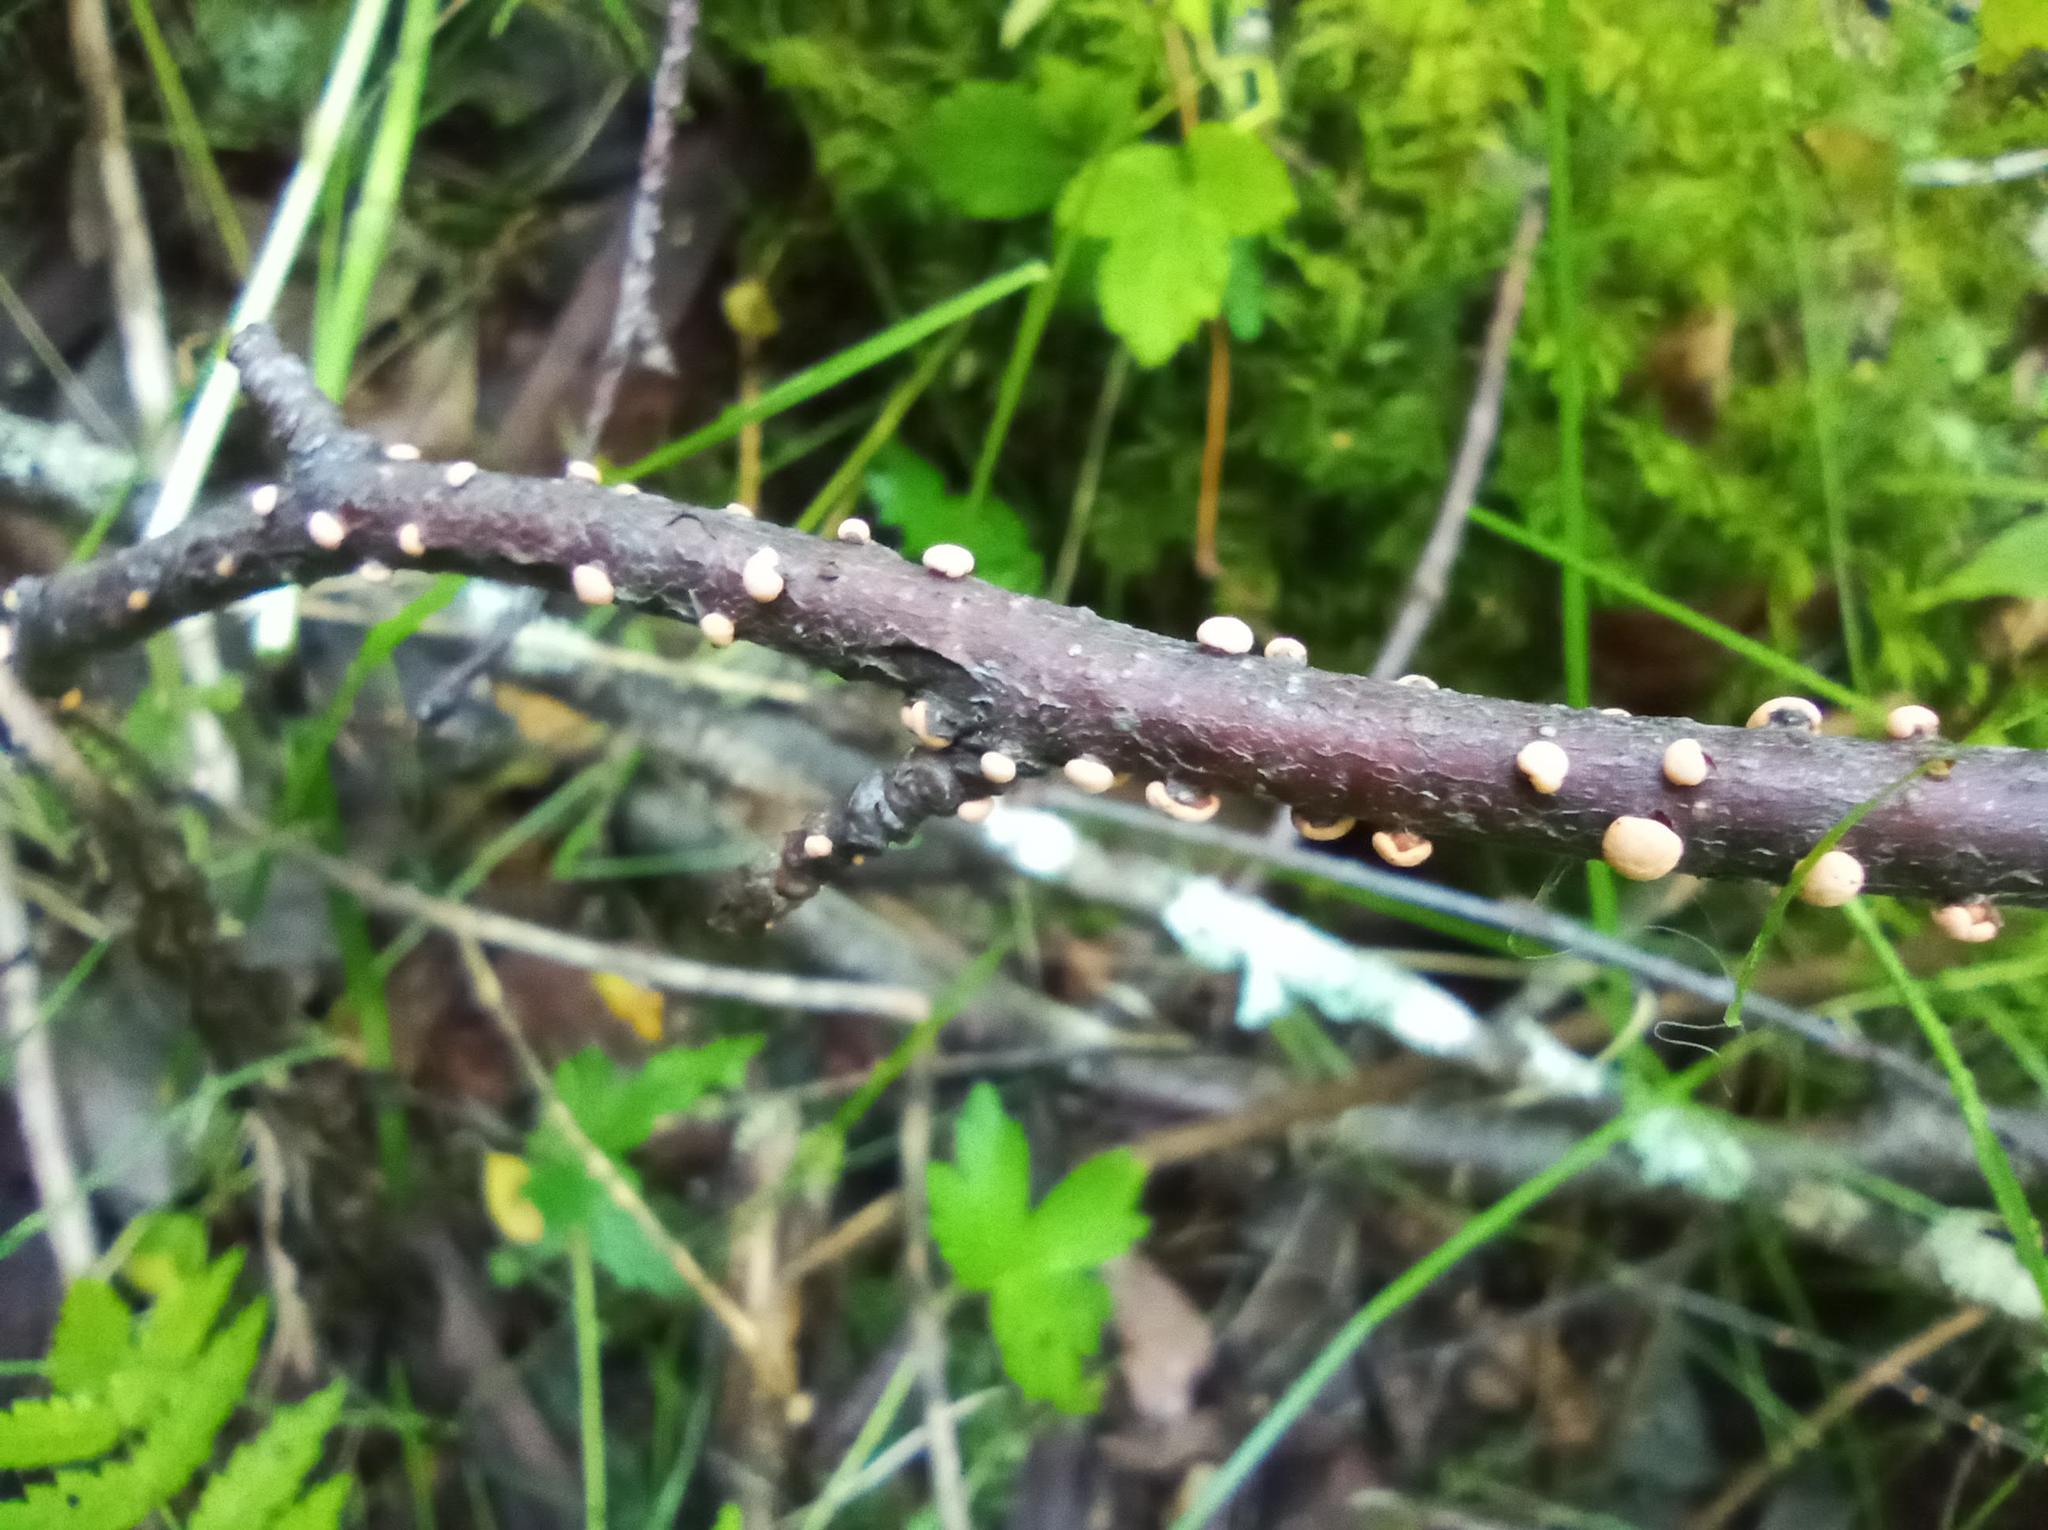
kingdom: Fungi
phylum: Ascomycota
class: Sordariomycetes
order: Hypocreales
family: Nectriaceae
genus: Nectria
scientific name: Nectria cinnabarina
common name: Coral spot
